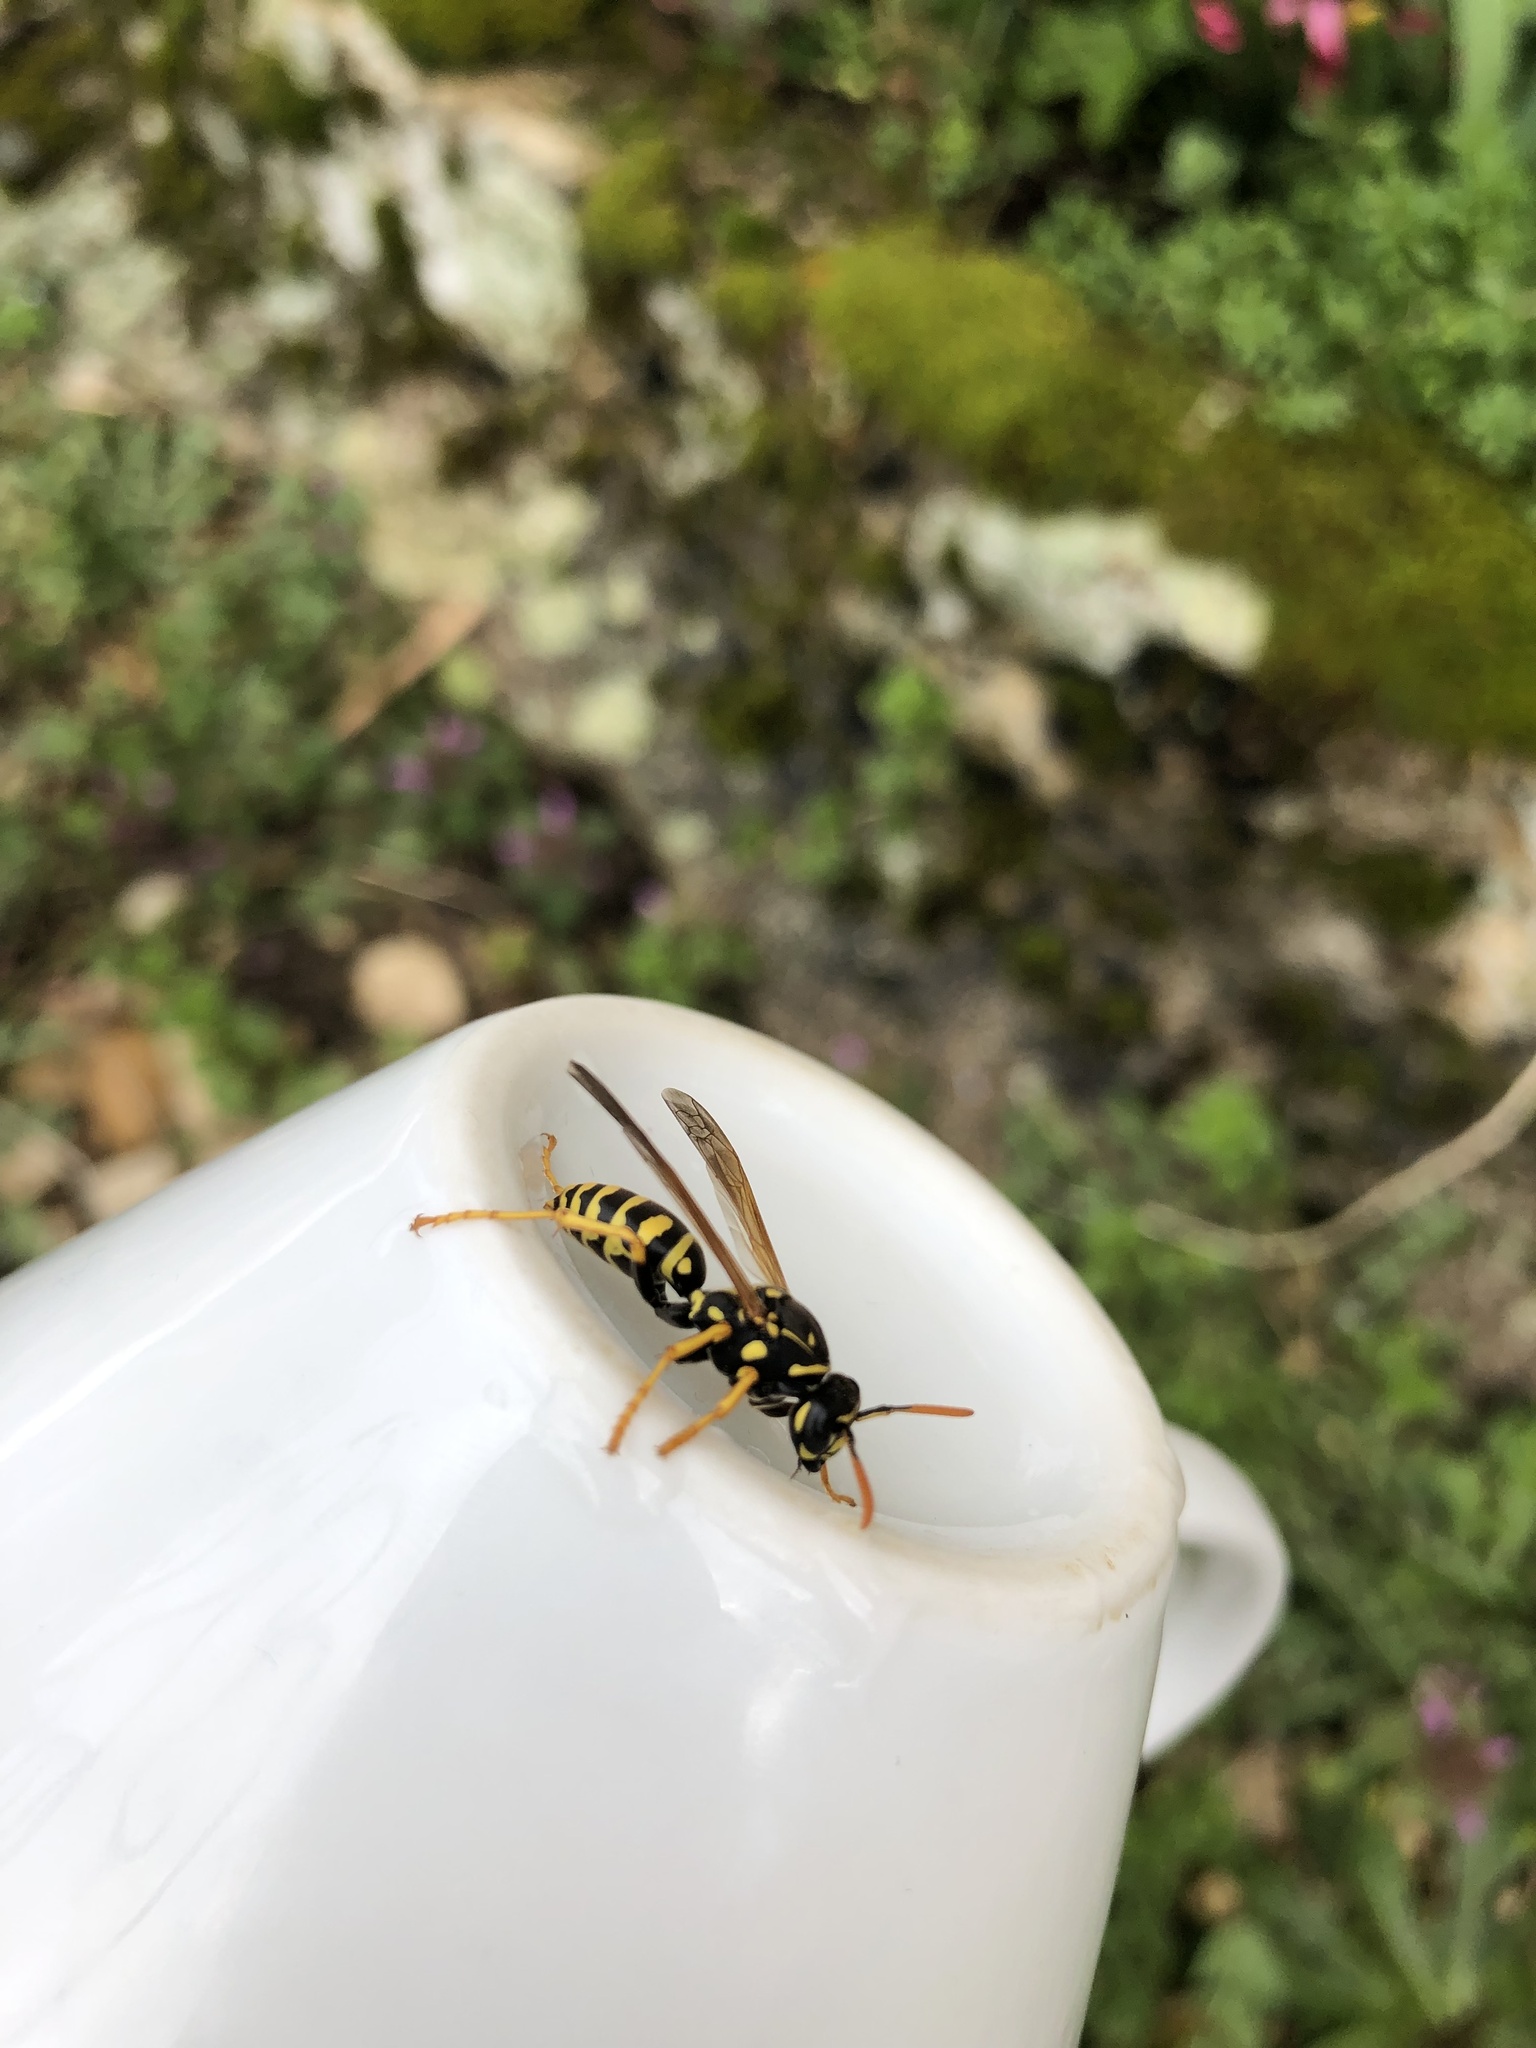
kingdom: Animalia
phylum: Arthropoda
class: Insecta
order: Hymenoptera
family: Eumenidae
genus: Polistes
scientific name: Polistes dominula
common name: Paper wasp
